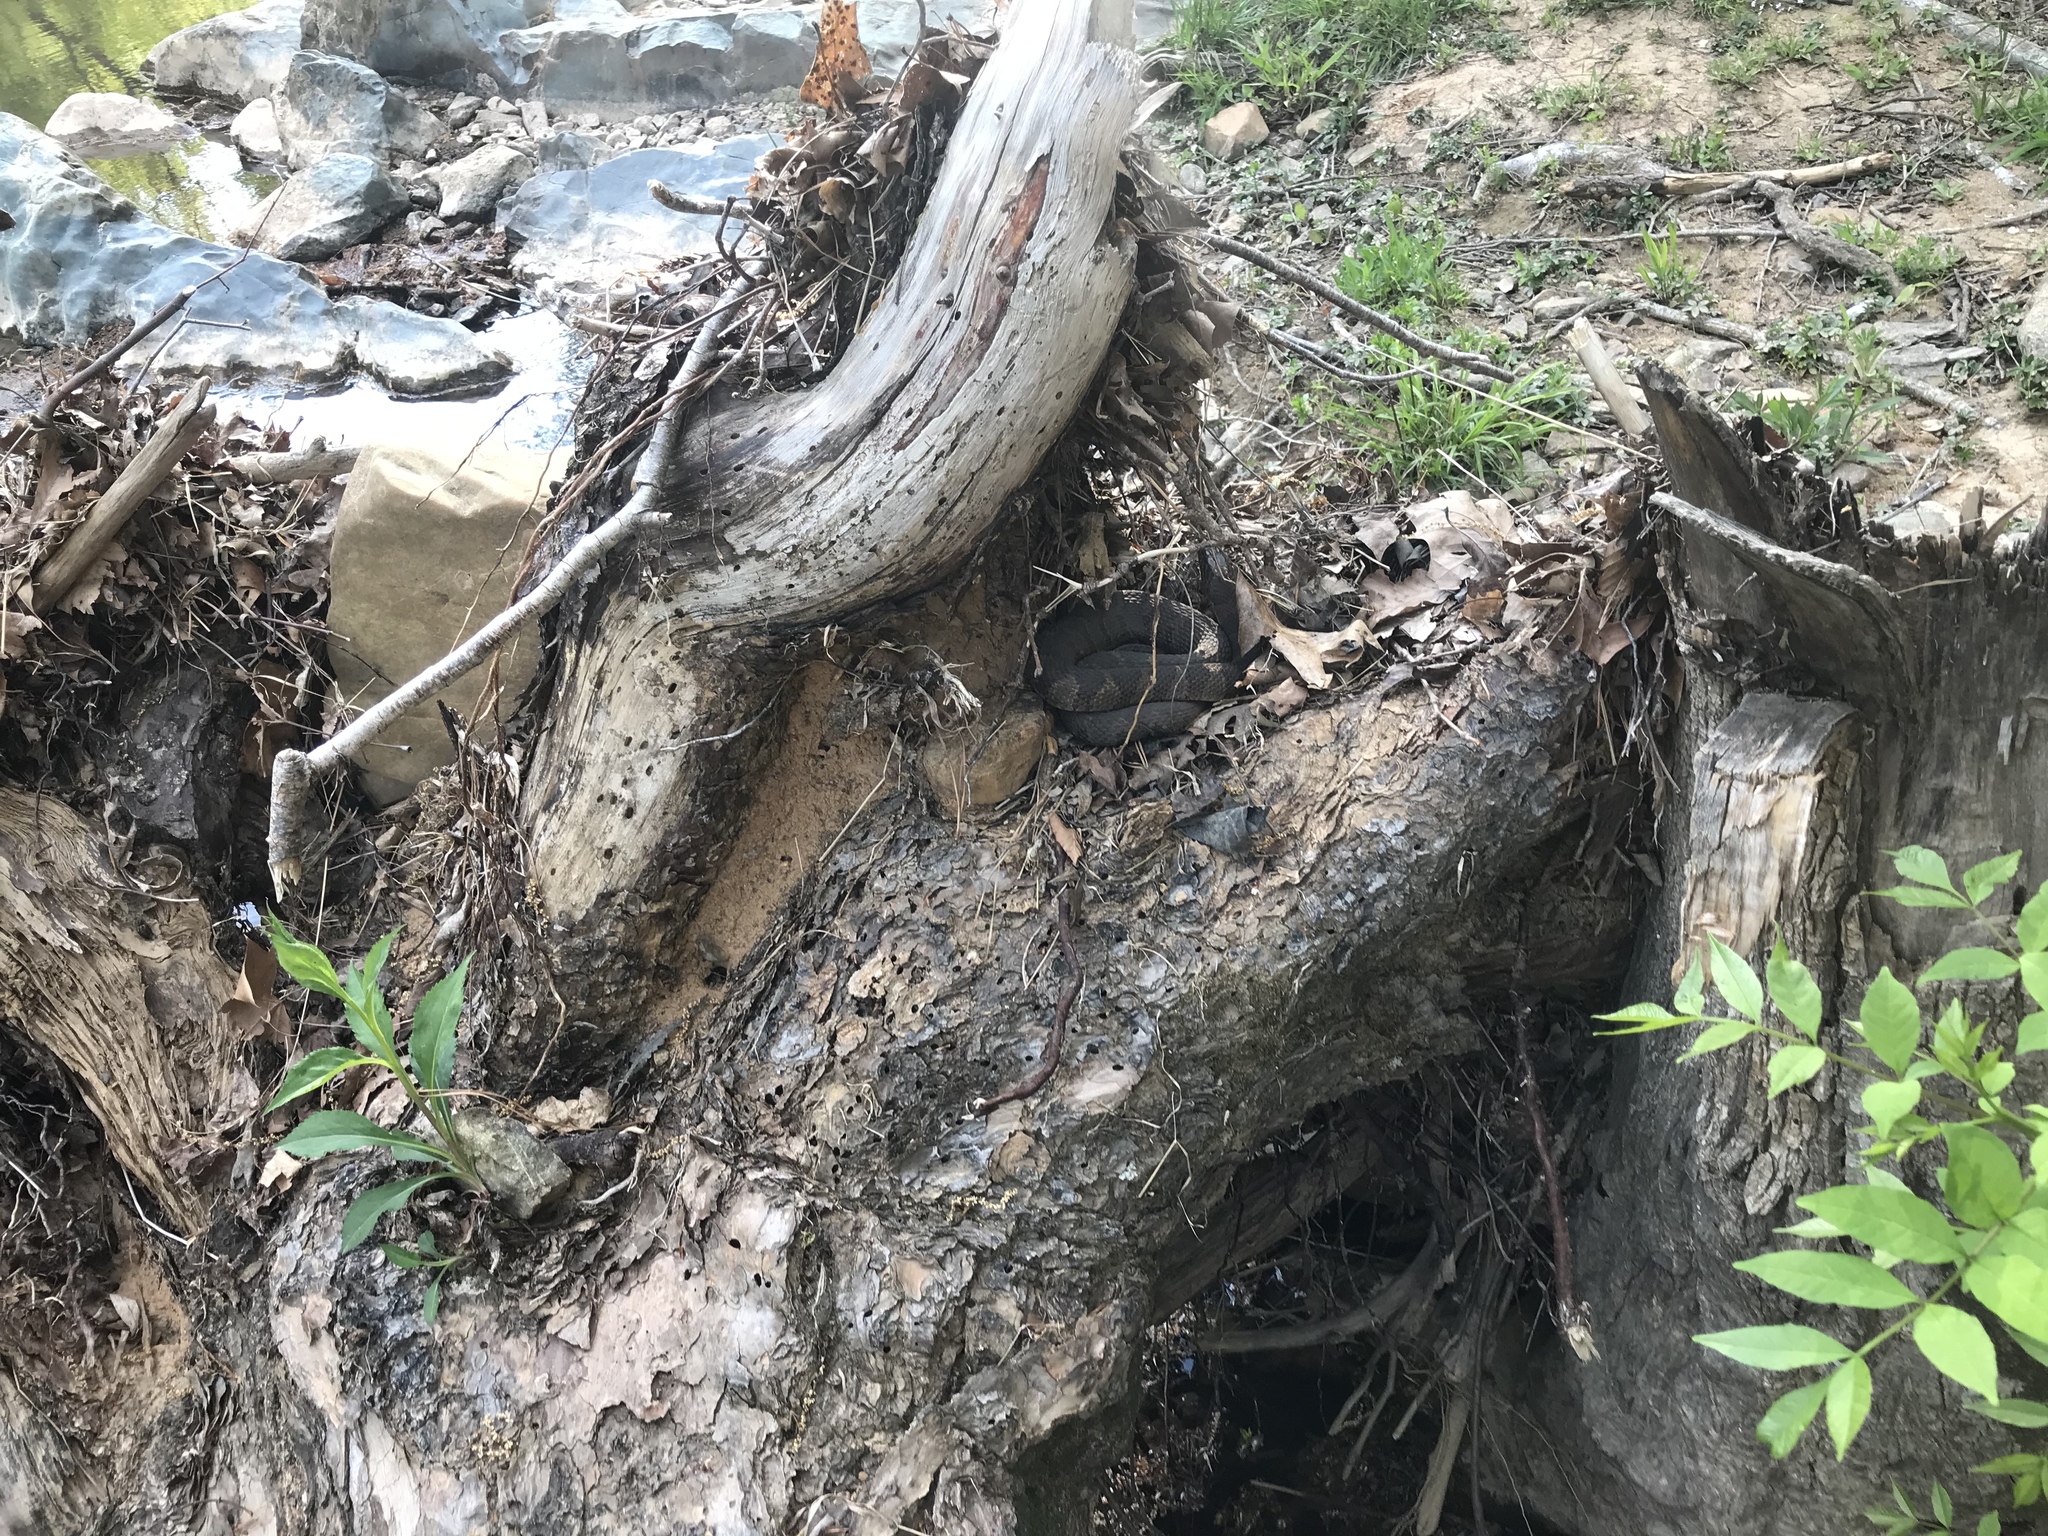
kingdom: Animalia
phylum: Chordata
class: Squamata
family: Colubridae
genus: Nerodia
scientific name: Nerodia sipedon
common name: Northern water snake
